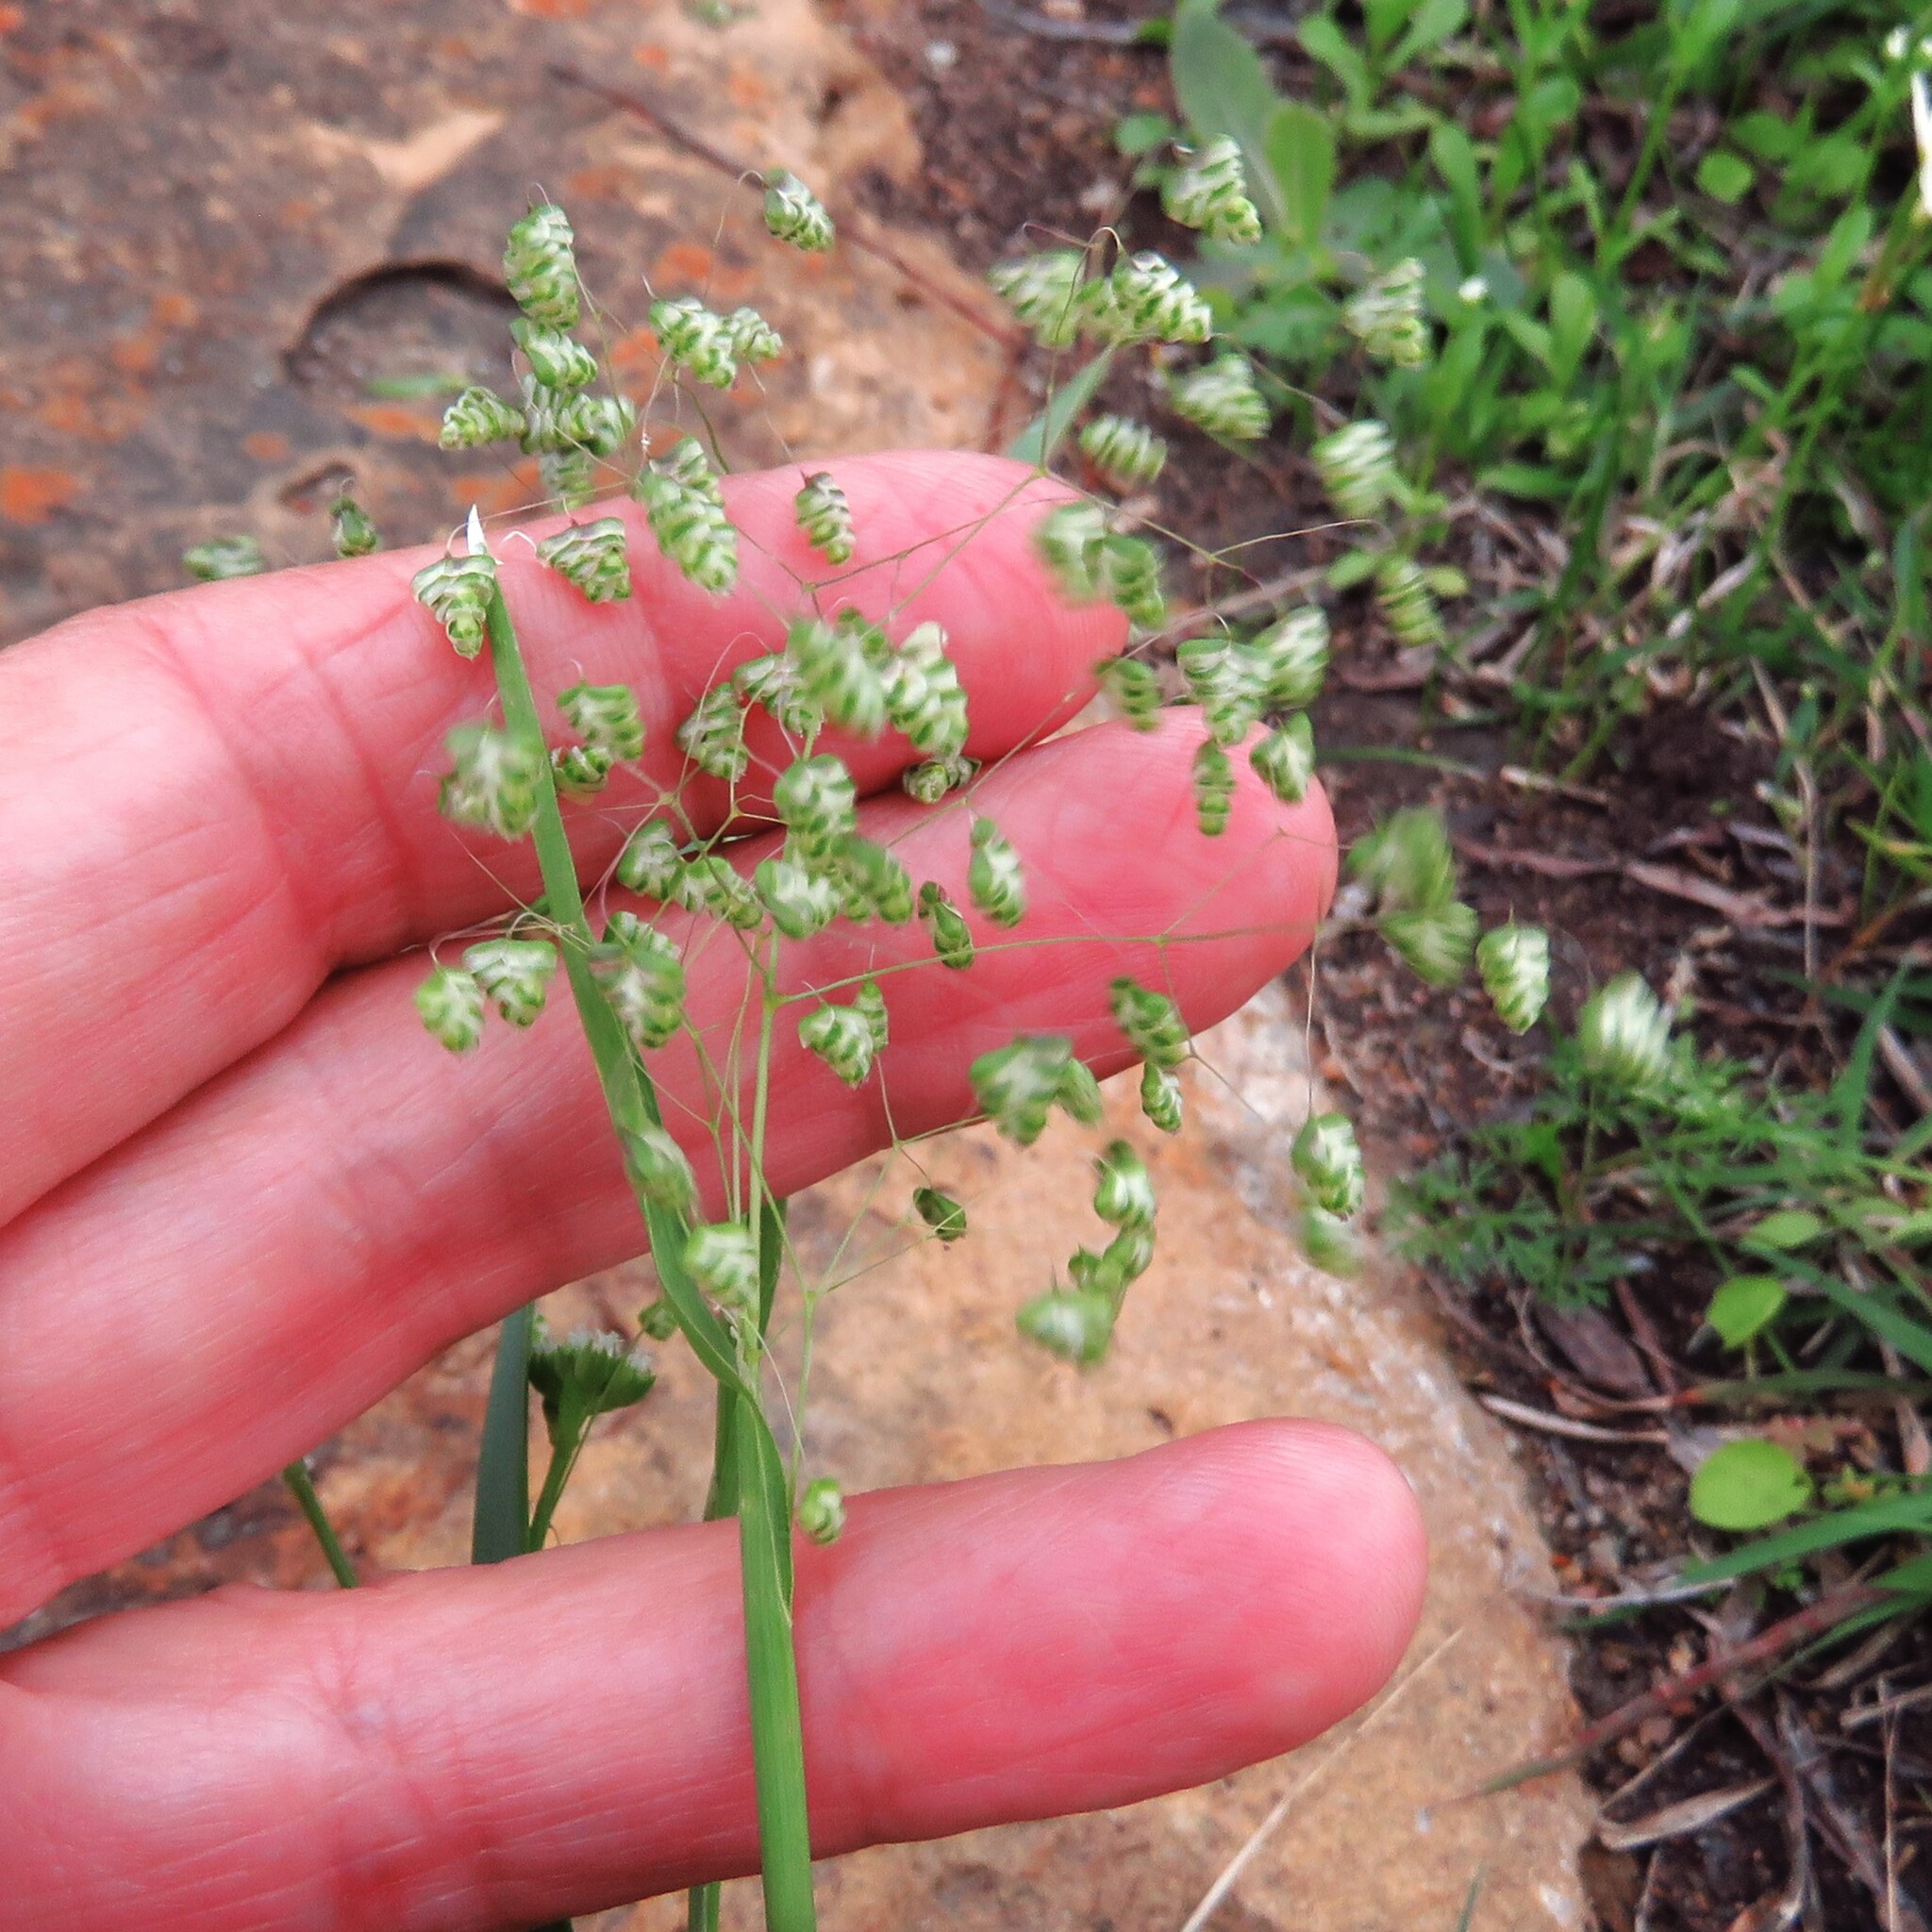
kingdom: Plantae
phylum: Tracheophyta
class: Liliopsida
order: Poales
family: Poaceae
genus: Briza
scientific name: Briza minor
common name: Lesser quaking-grass
